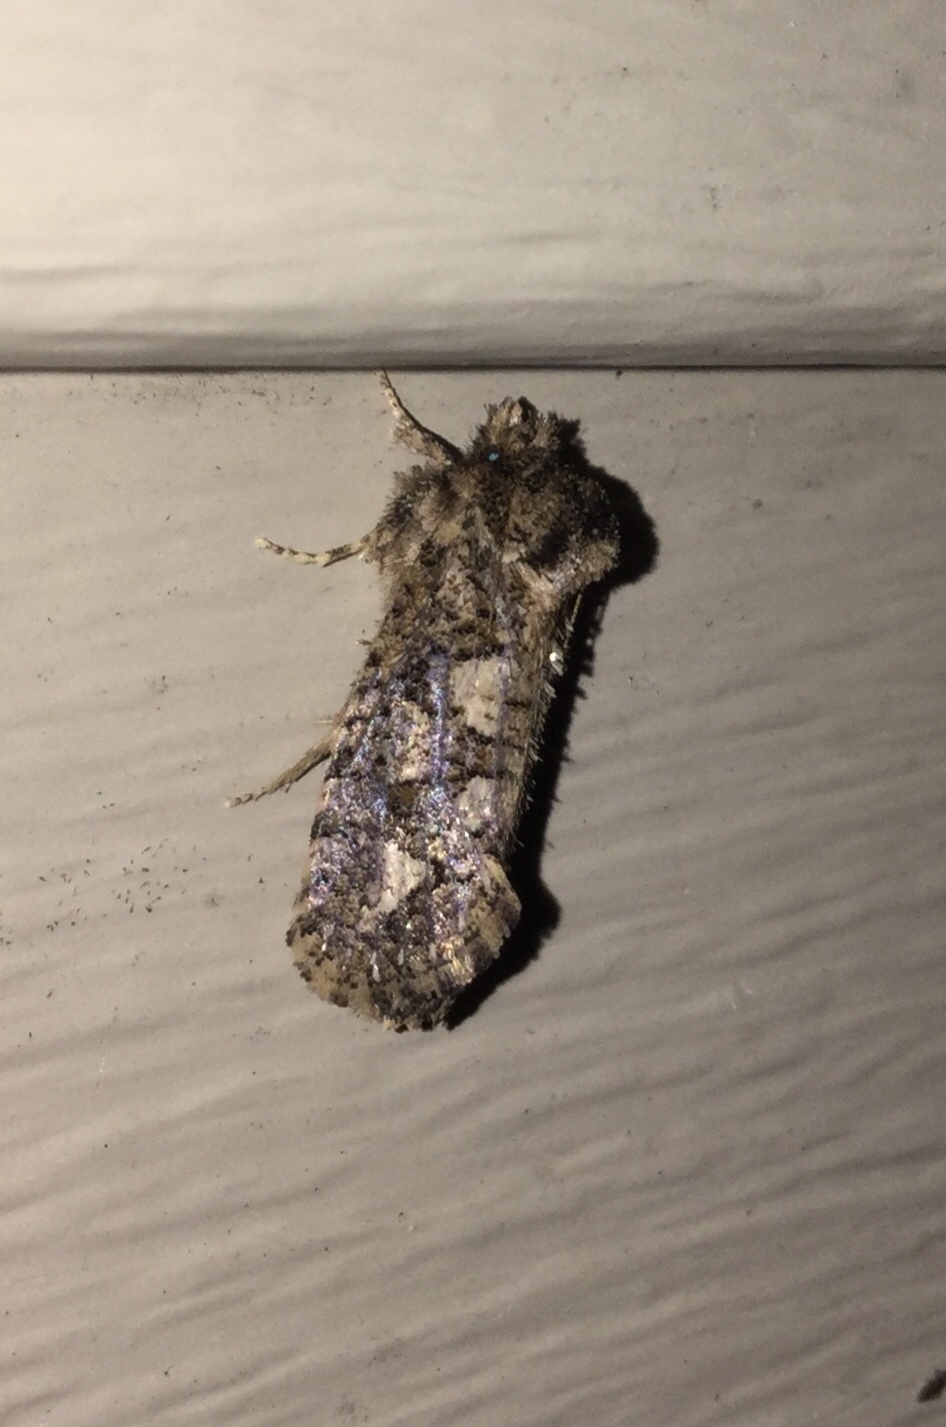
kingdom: Animalia
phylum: Arthropoda
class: Insecta
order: Lepidoptera
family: Tineidae
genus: Acrolophus
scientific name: Acrolophus arcanella
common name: Arcane grass tubeworm moth
